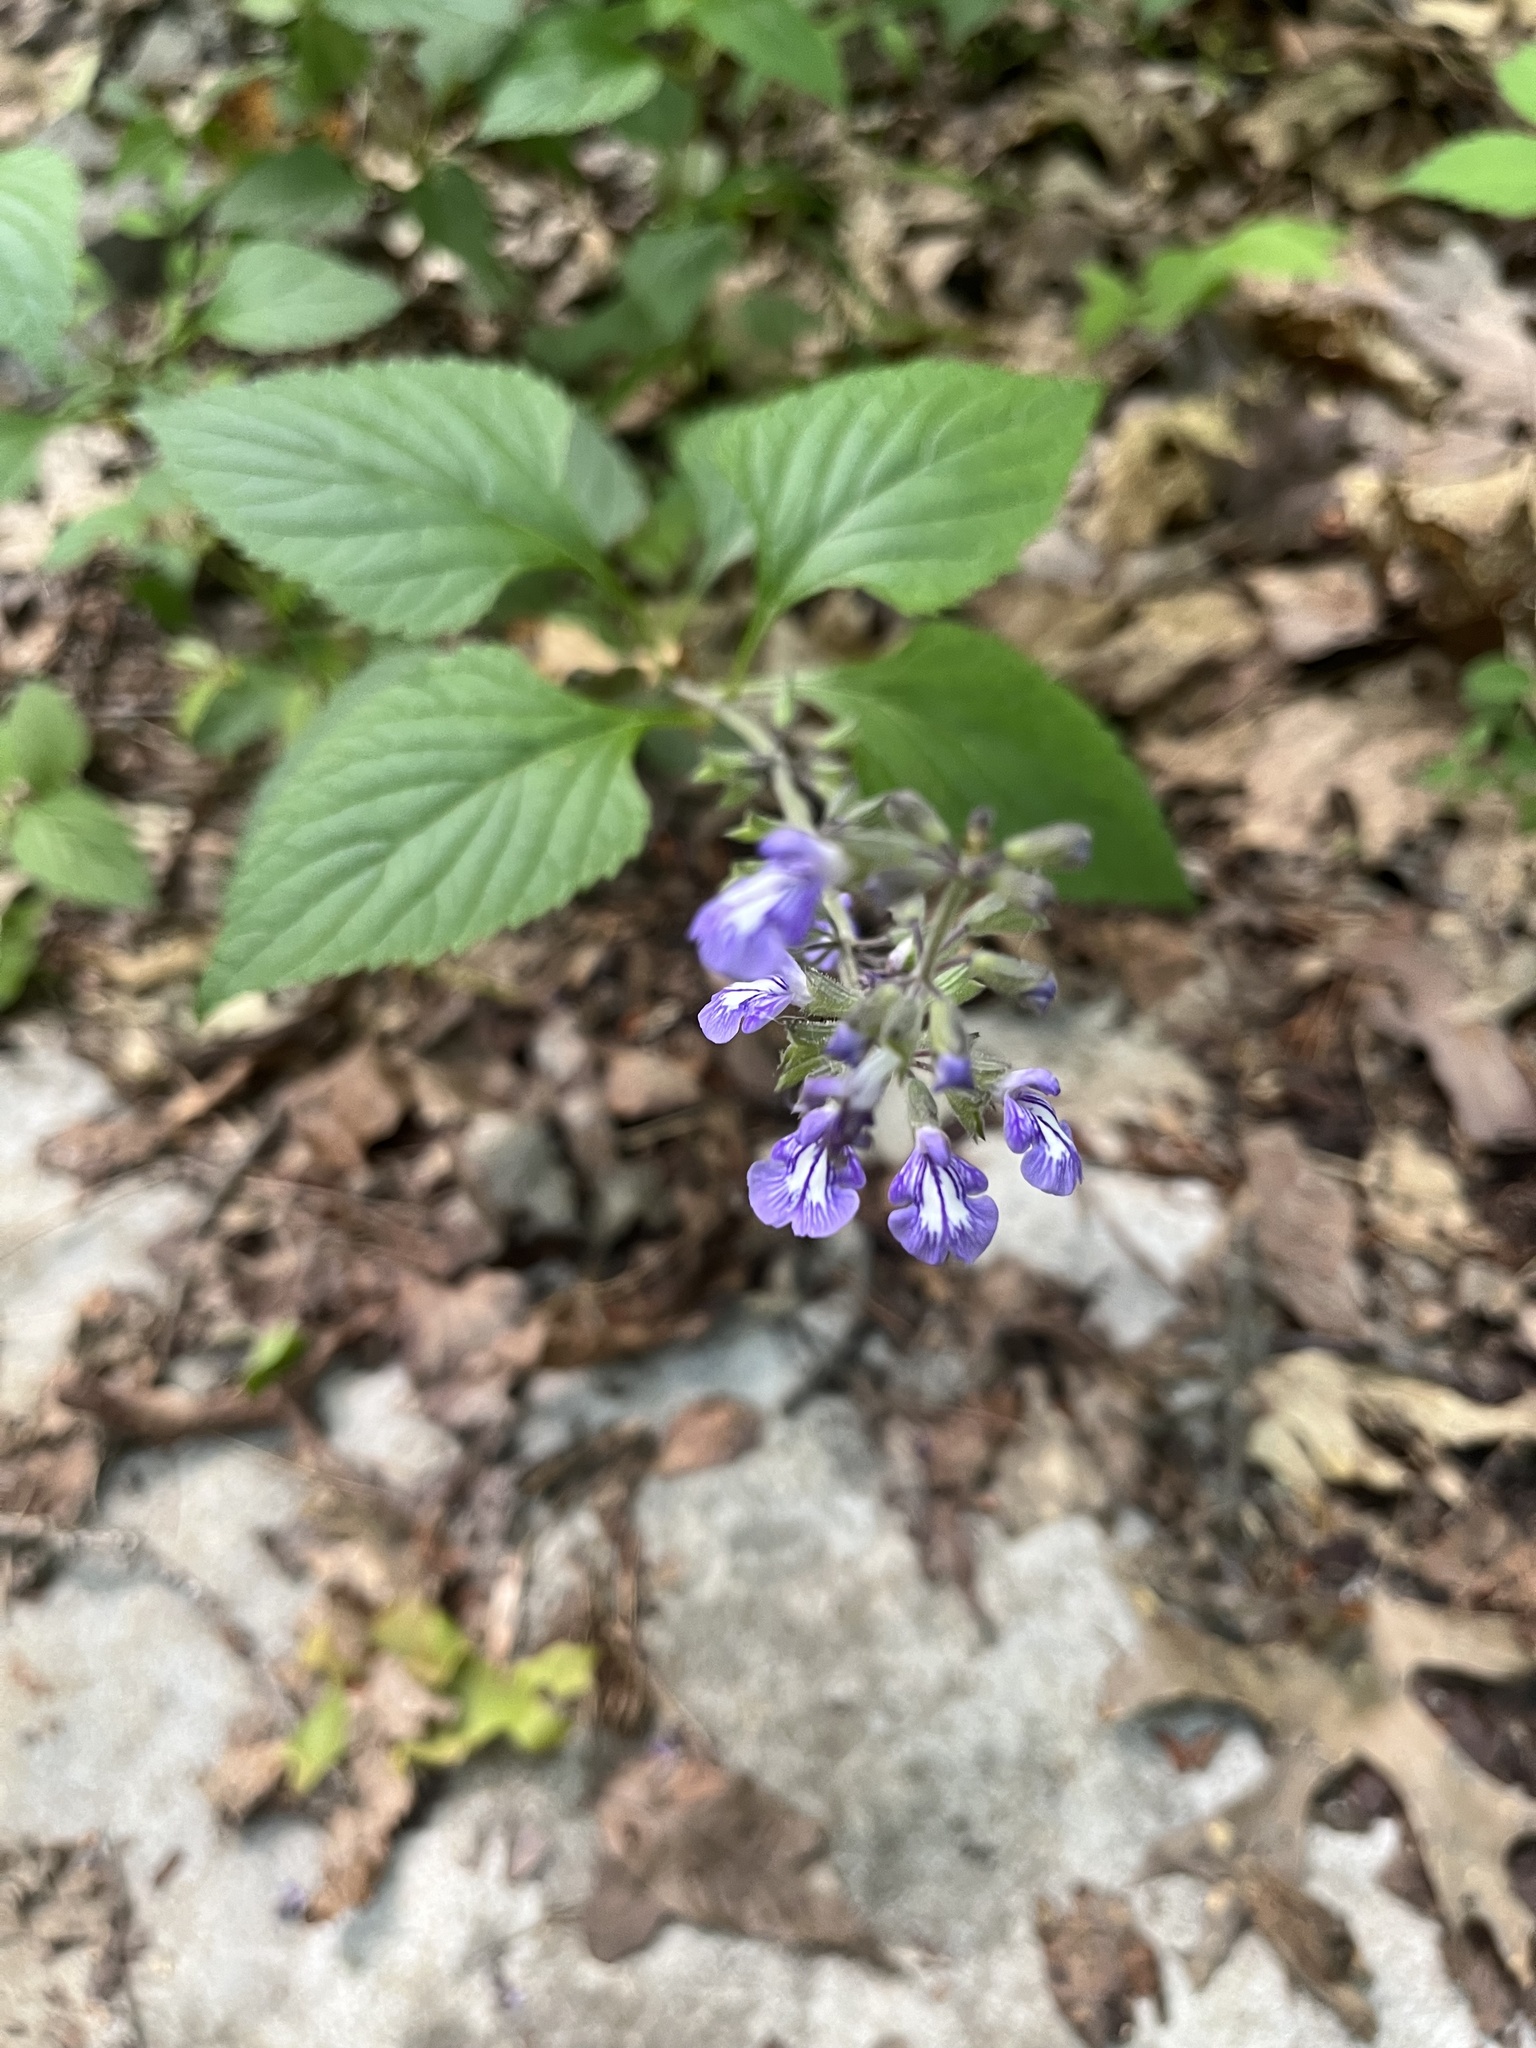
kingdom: Plantae
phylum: Tracheophyta
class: Magnoliopsida
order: Lamiales
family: Lamiaceae
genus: Salvia
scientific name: Salvia urticifolia
